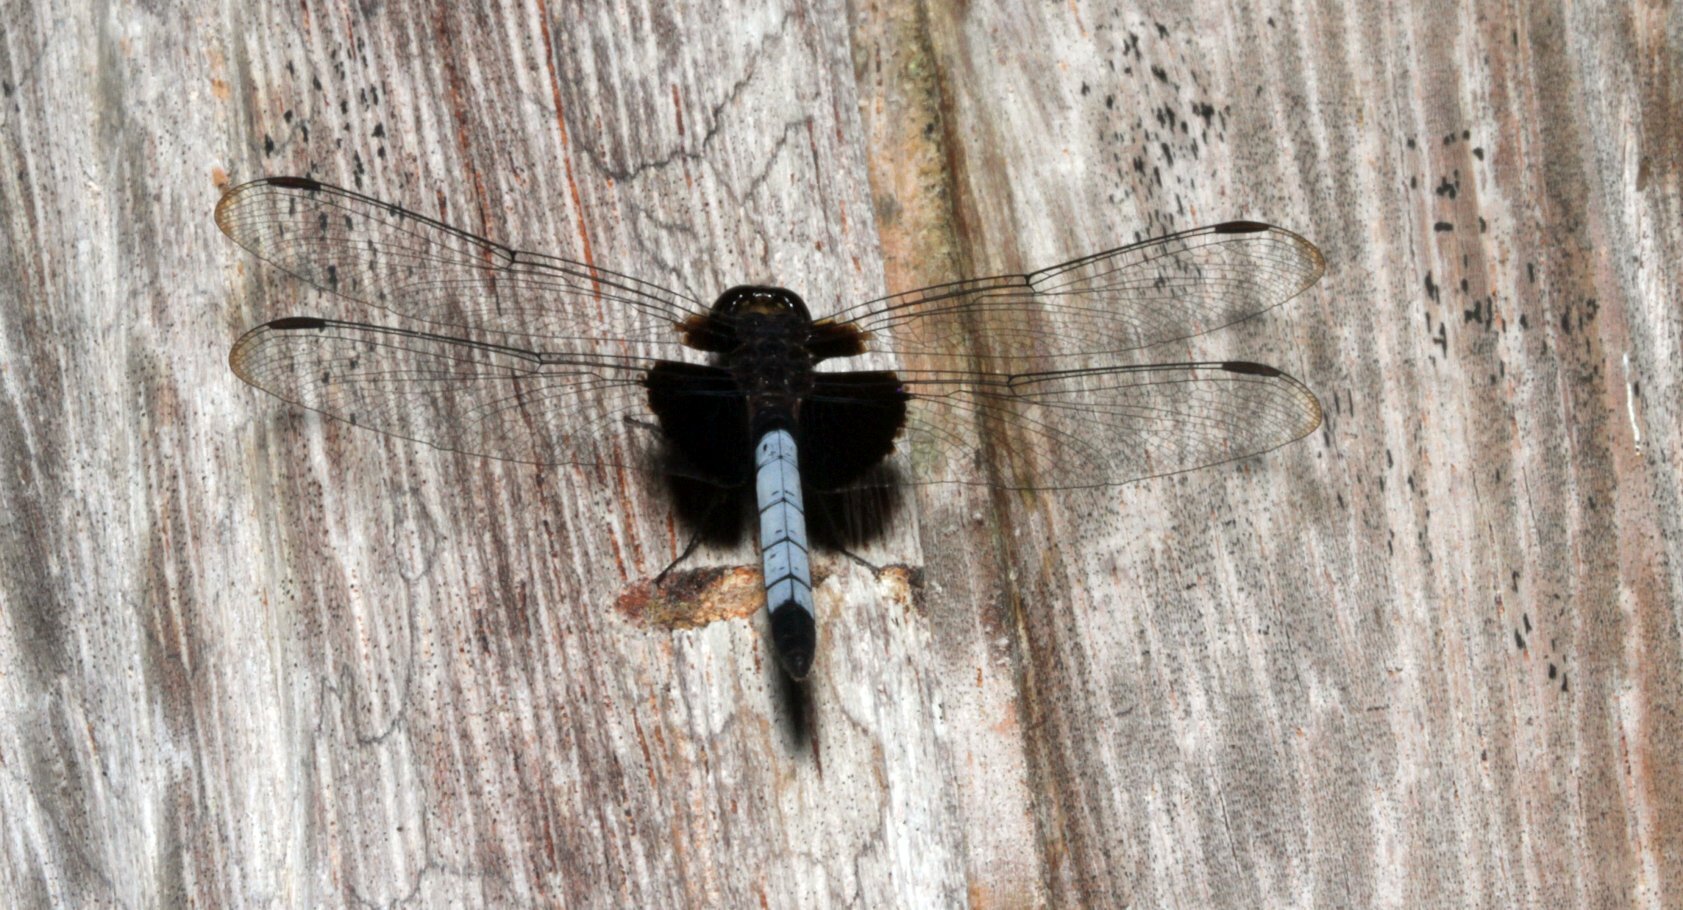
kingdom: Animalia
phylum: Arthropoda
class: Insecta
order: Odonata
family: Libellulidae
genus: Erythrodiplax
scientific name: Erythrodiplax unimaculata
